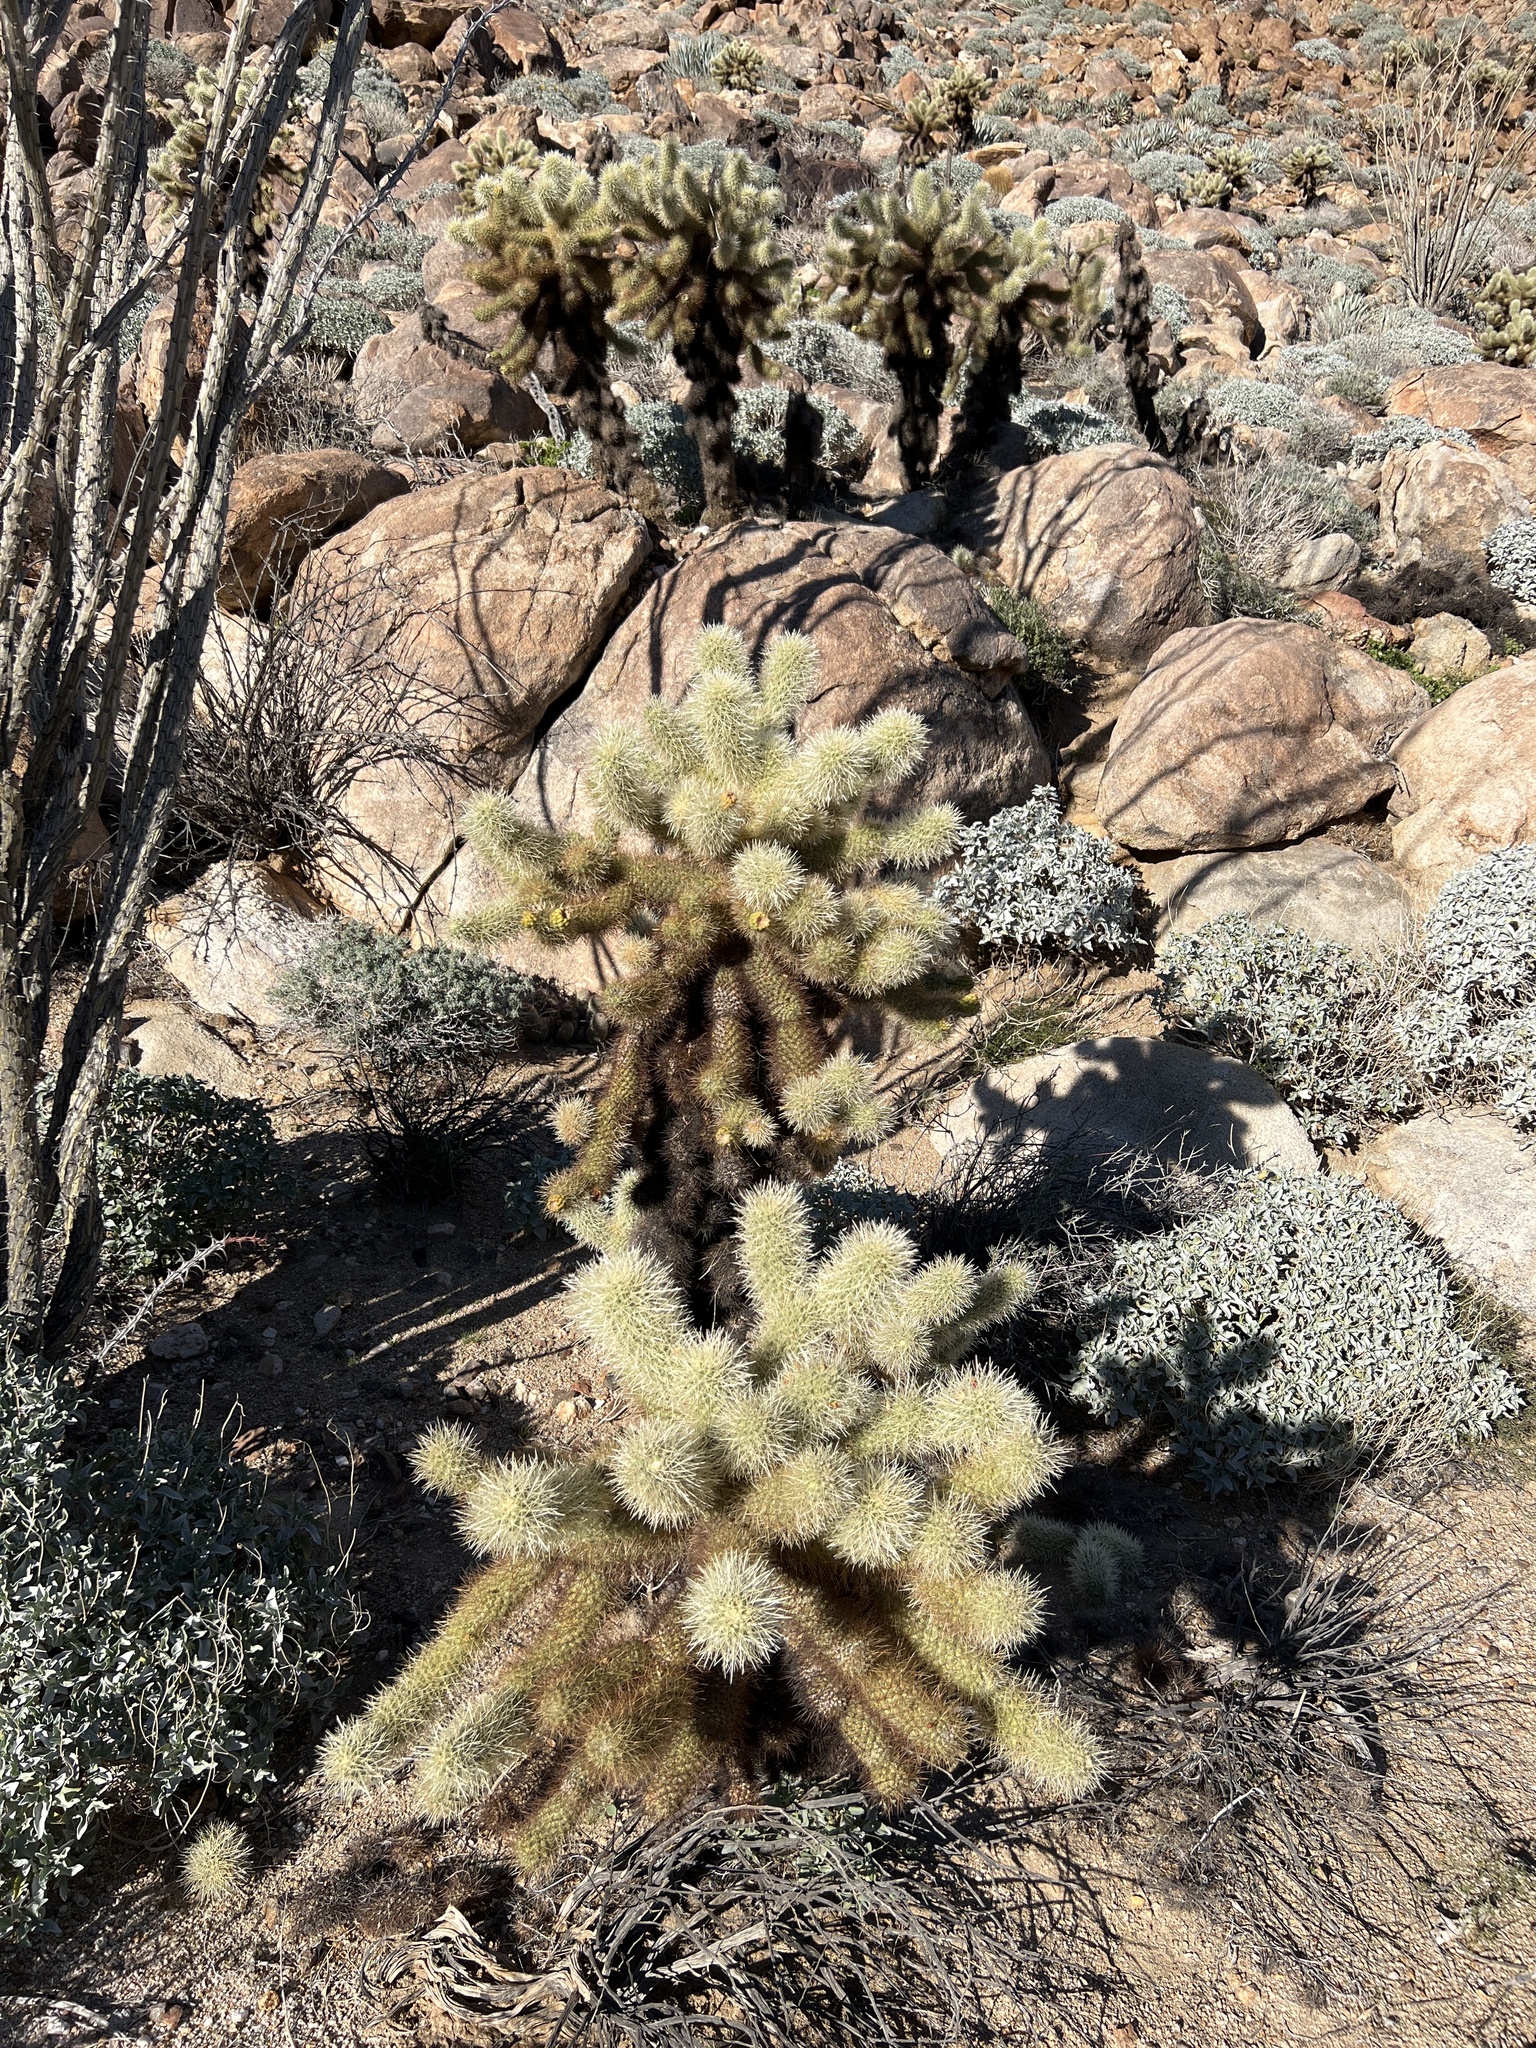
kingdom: Plantae
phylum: Tracheophyta
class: Magnoliopsida
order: Caryophyllales
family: Cactaceae
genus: Cylindropuntia
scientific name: Cylindropuntia fosbergii
